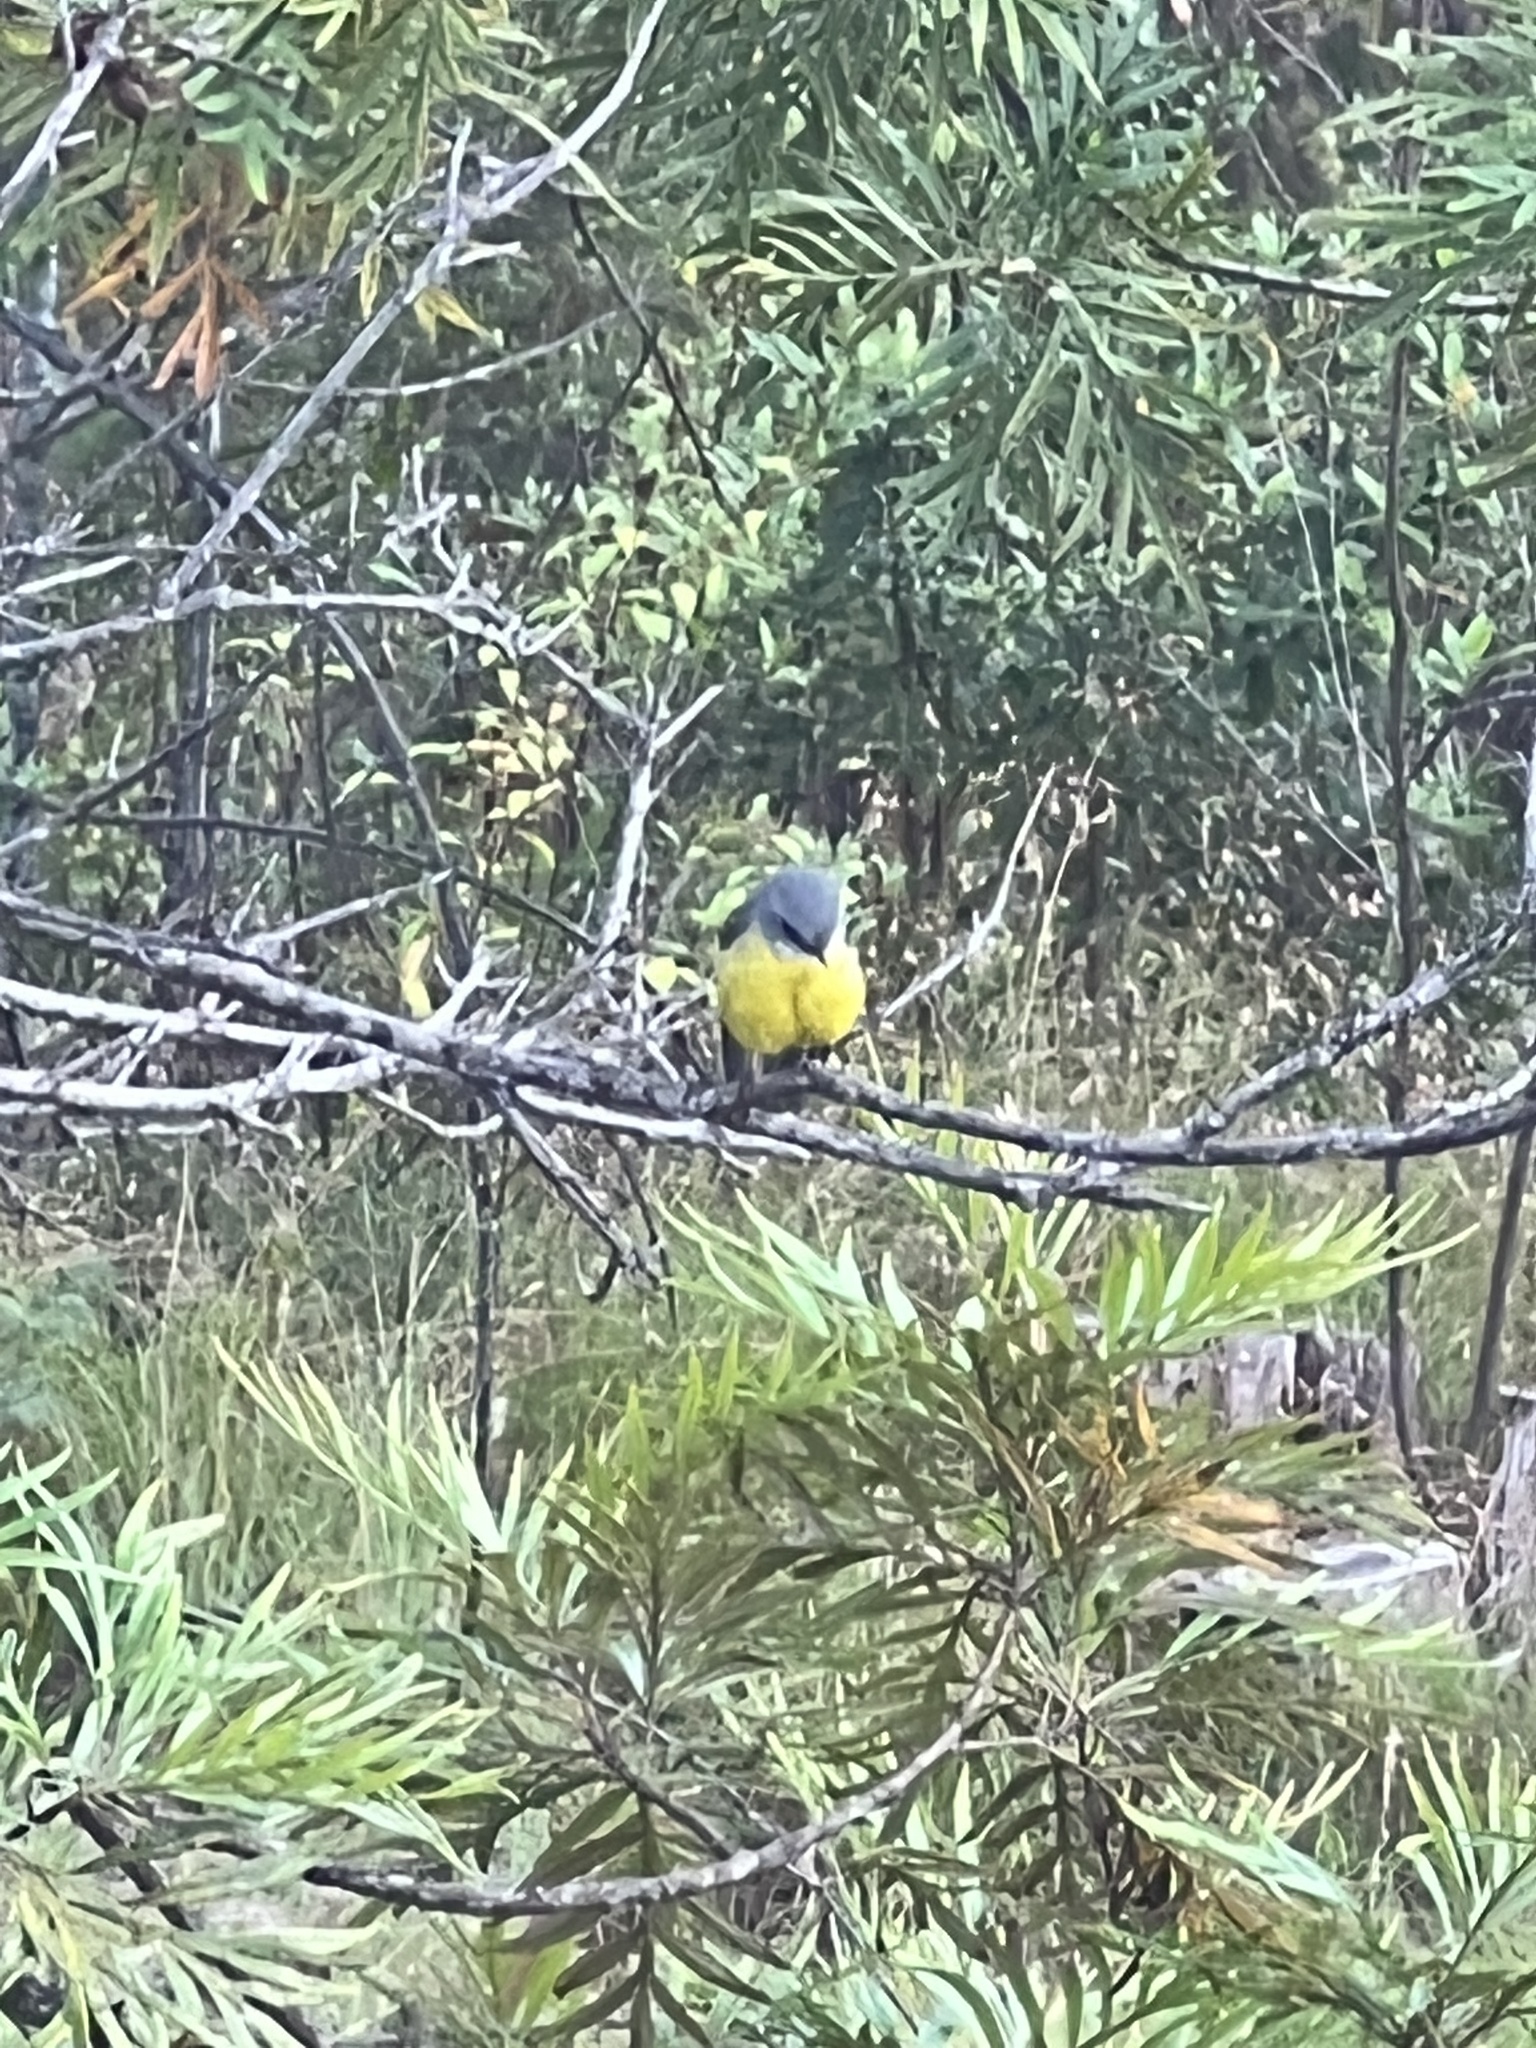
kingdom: Animalia
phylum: Chordata
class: Aves
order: Passeriformes
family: Petroicidae
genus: Eopsaltria
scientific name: Eopsaltria australis
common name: Eastern yellow robin
